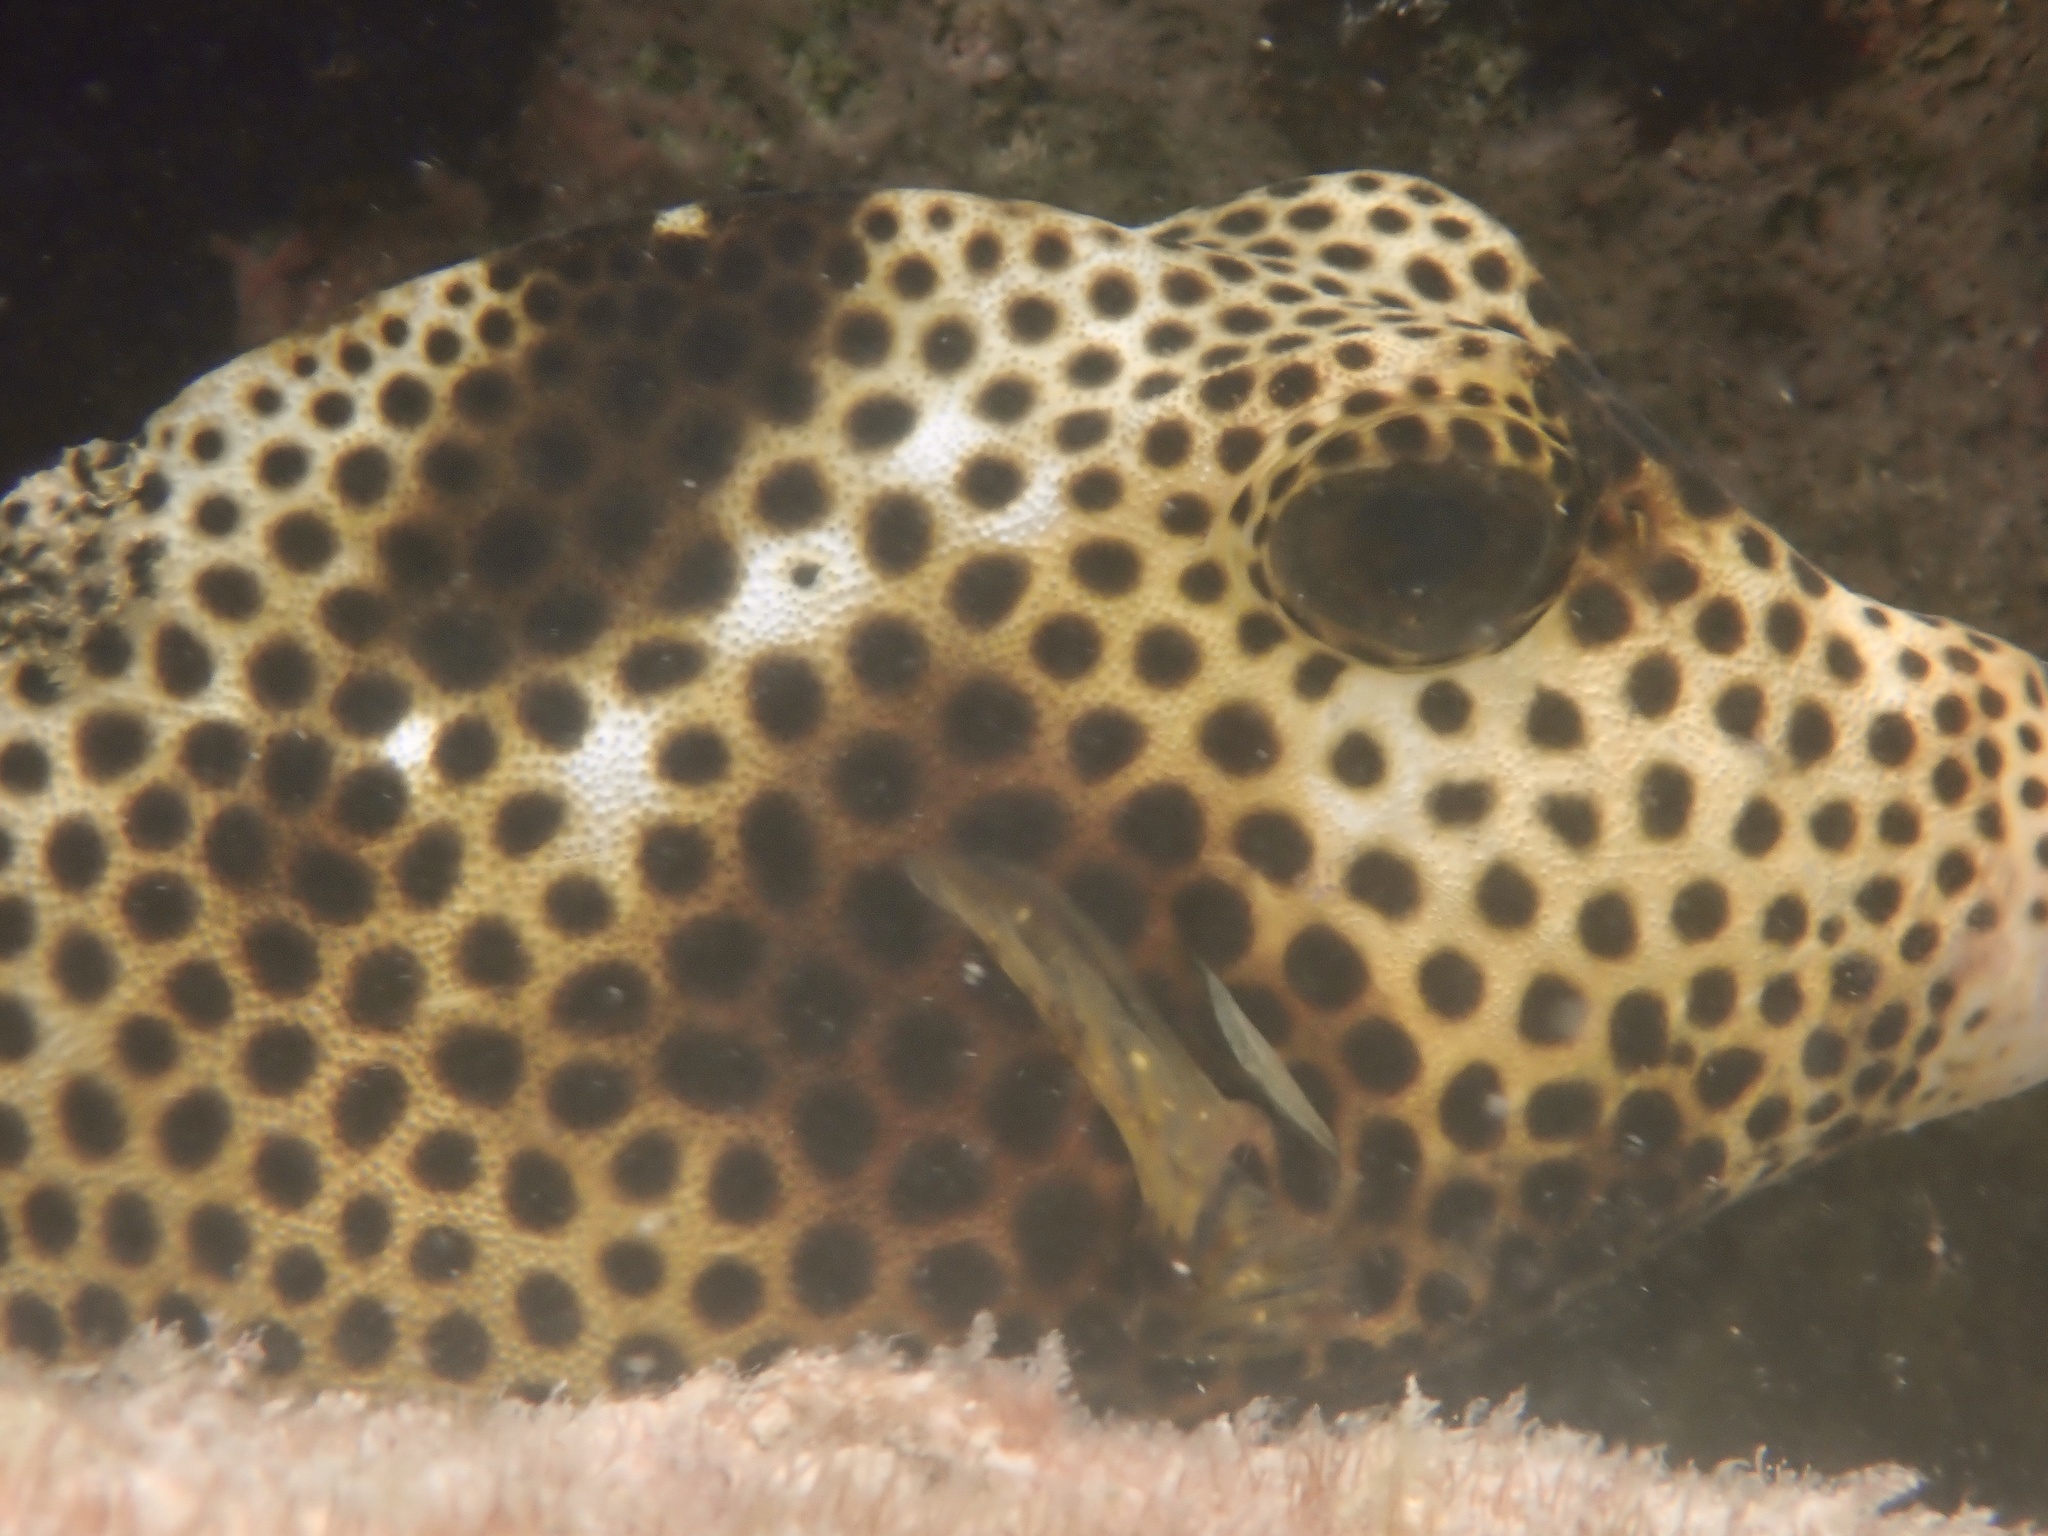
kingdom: Animalia
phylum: Chordata
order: Tetraodontiformes
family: Ostraciidae
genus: Lactophrys
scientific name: Lactophrys bicaudalis
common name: Spotted trunkfish
